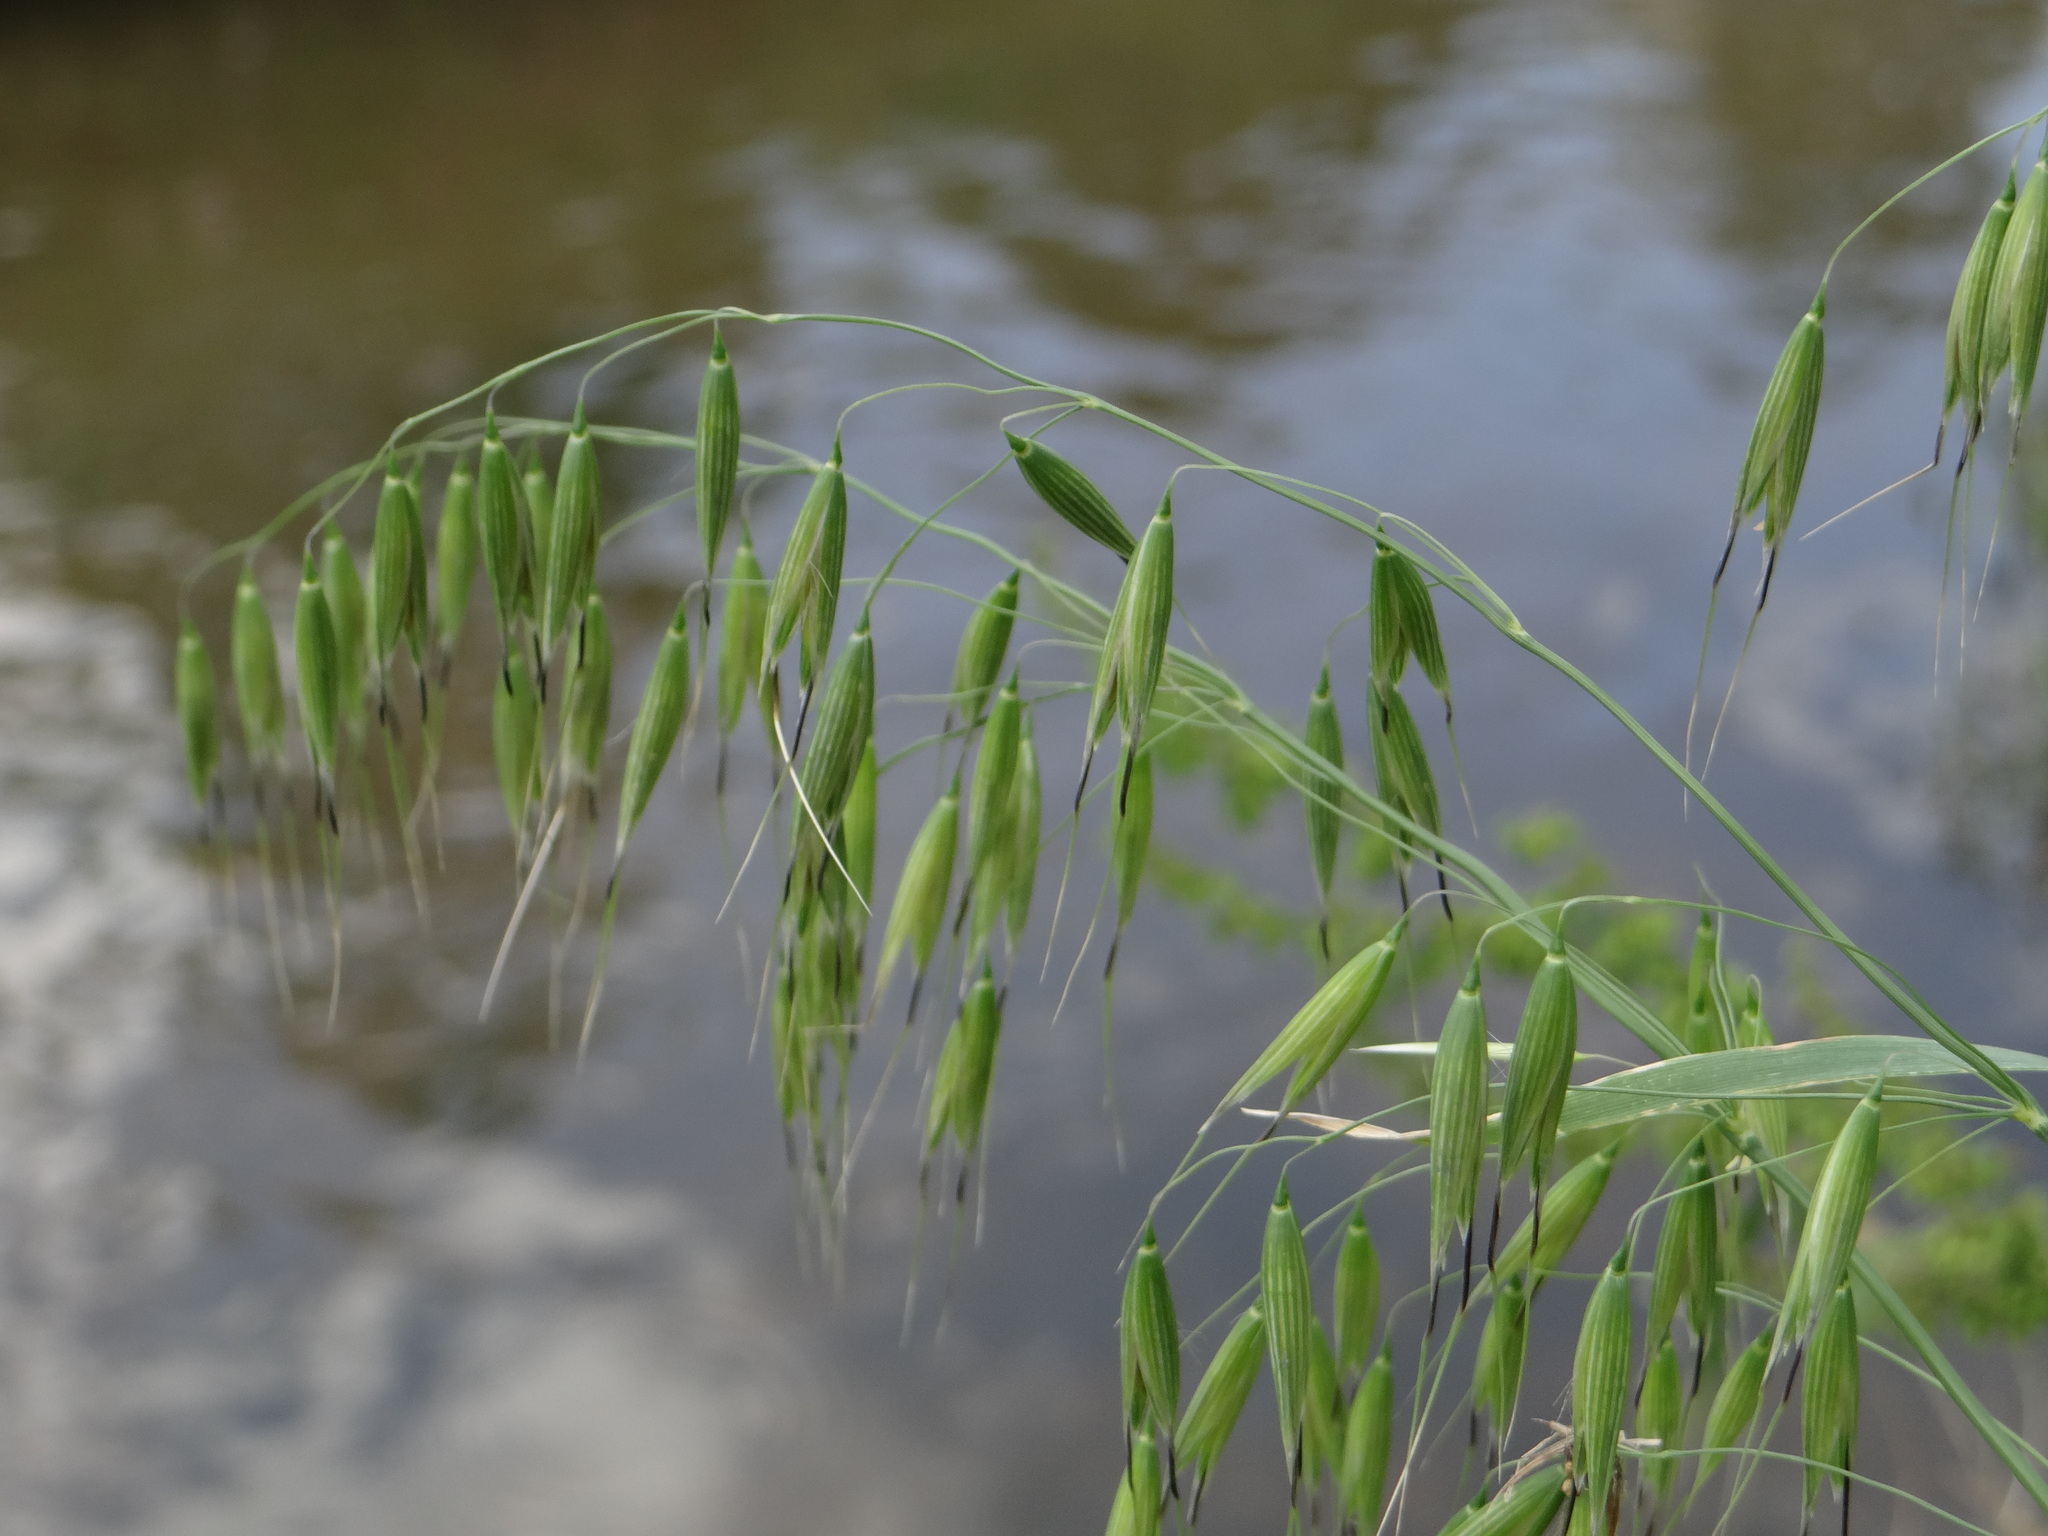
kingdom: Plantae
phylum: Tracheophyta
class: Liliopsida
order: Poales
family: Poaceae
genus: Avena
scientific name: Avena fatua
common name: Wild oat
